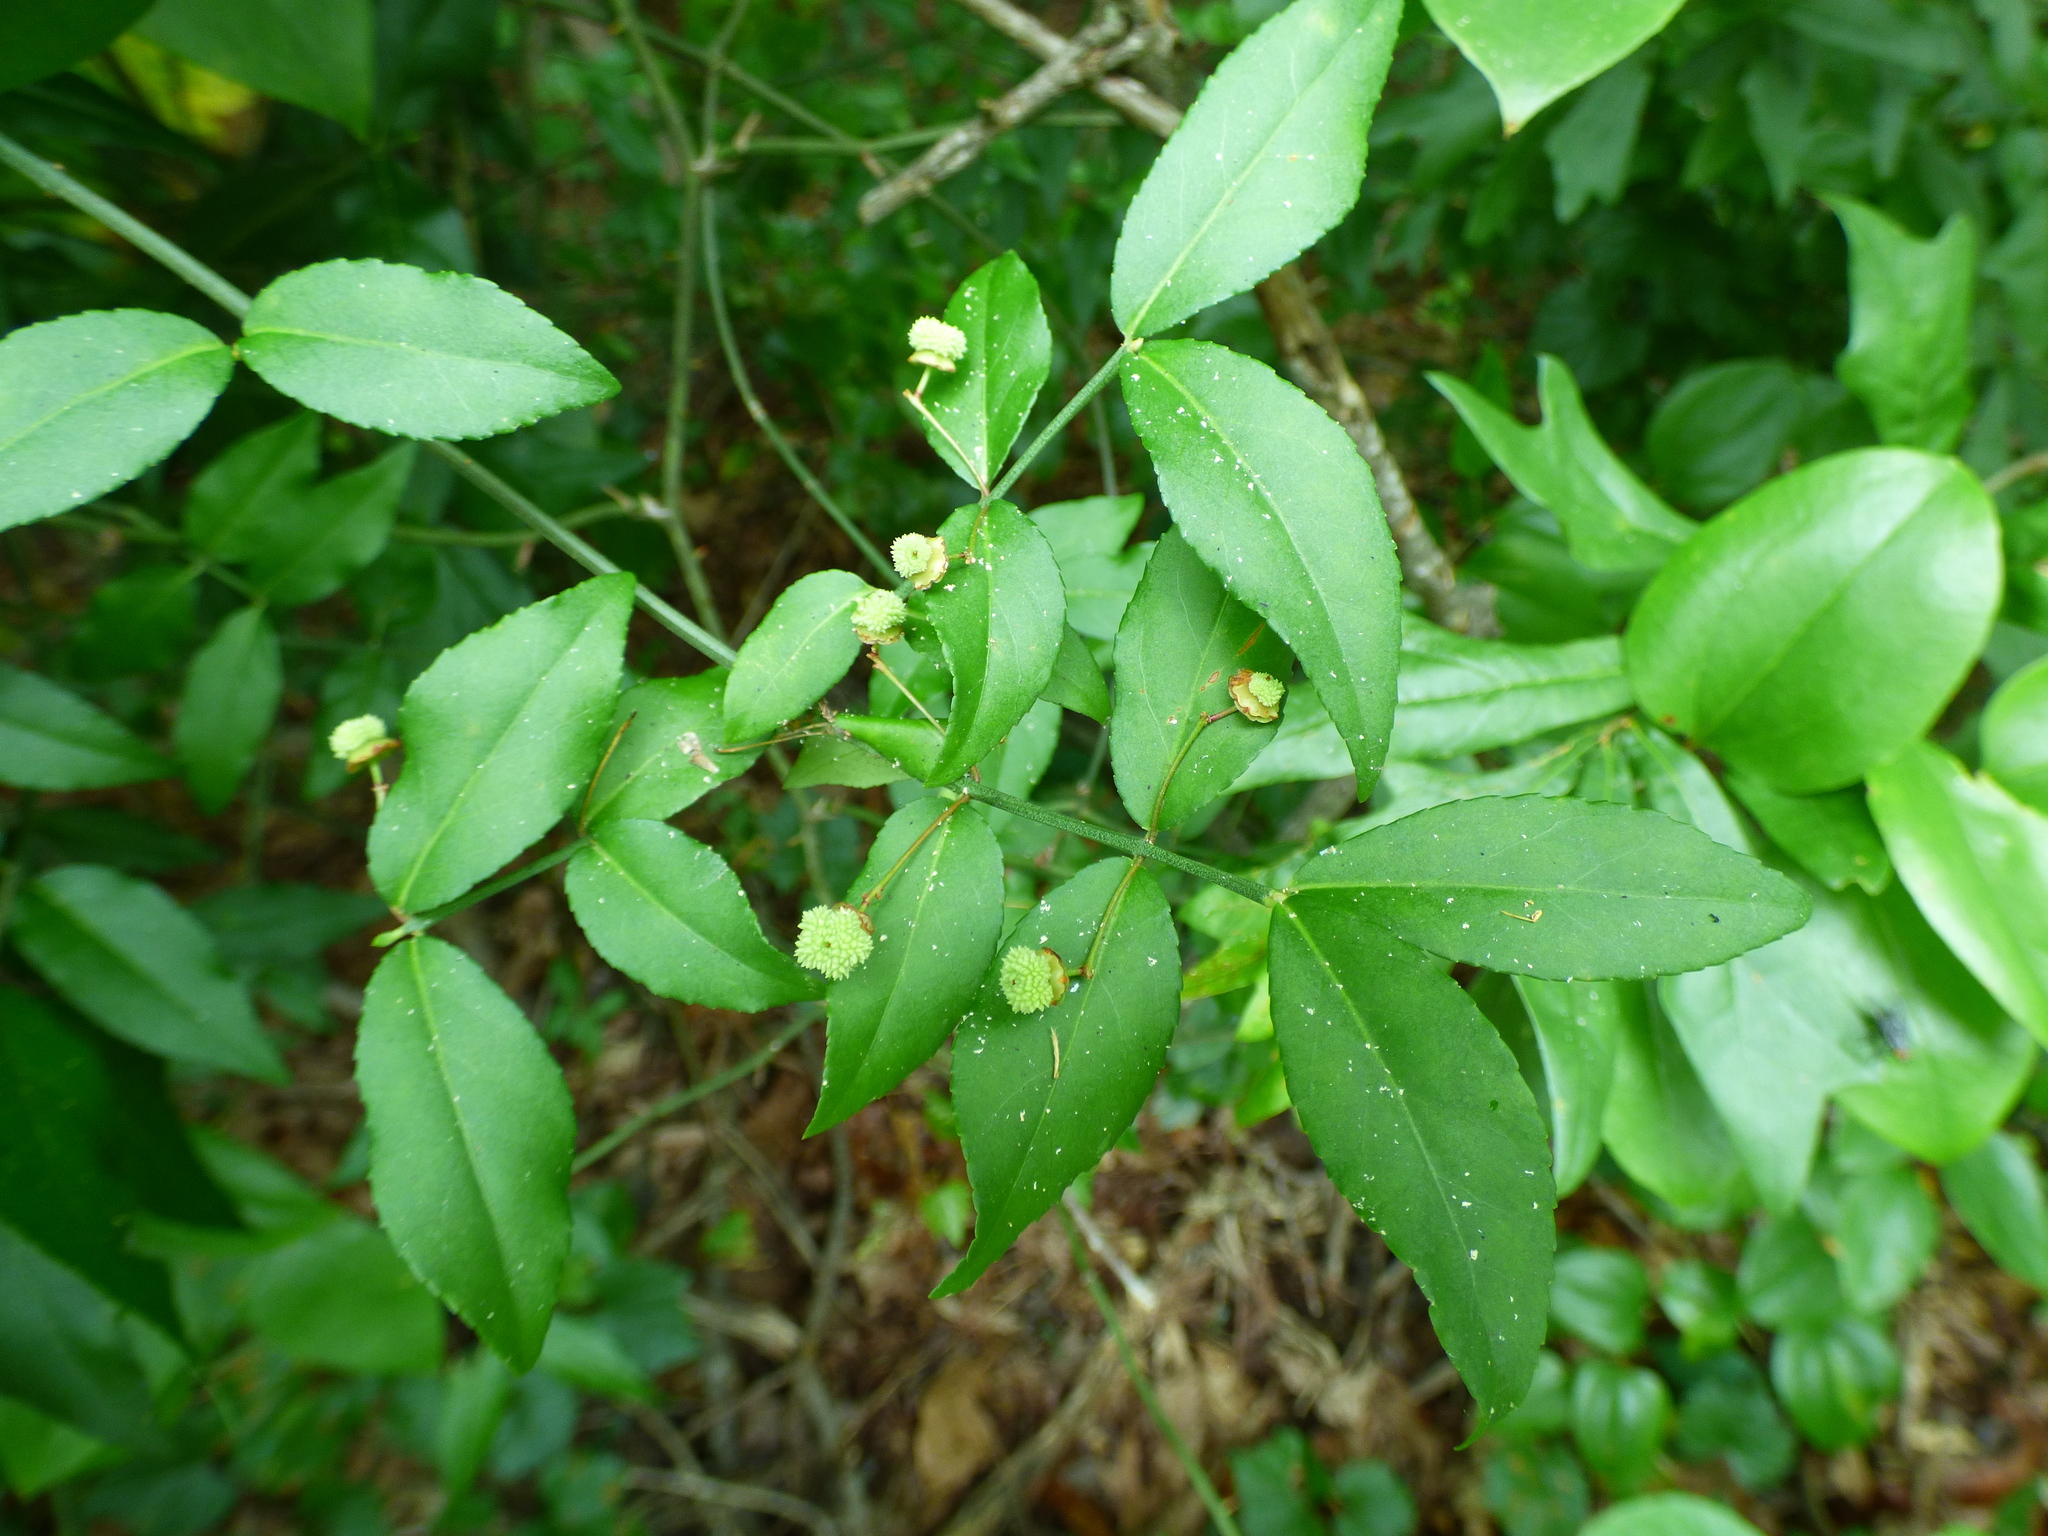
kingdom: Plantae
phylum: Tracheophyta
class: Magnoliopsida
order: Celastrales
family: Celastraceae
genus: Euonymus
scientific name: Euonymus americanus
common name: Bursting-heart
